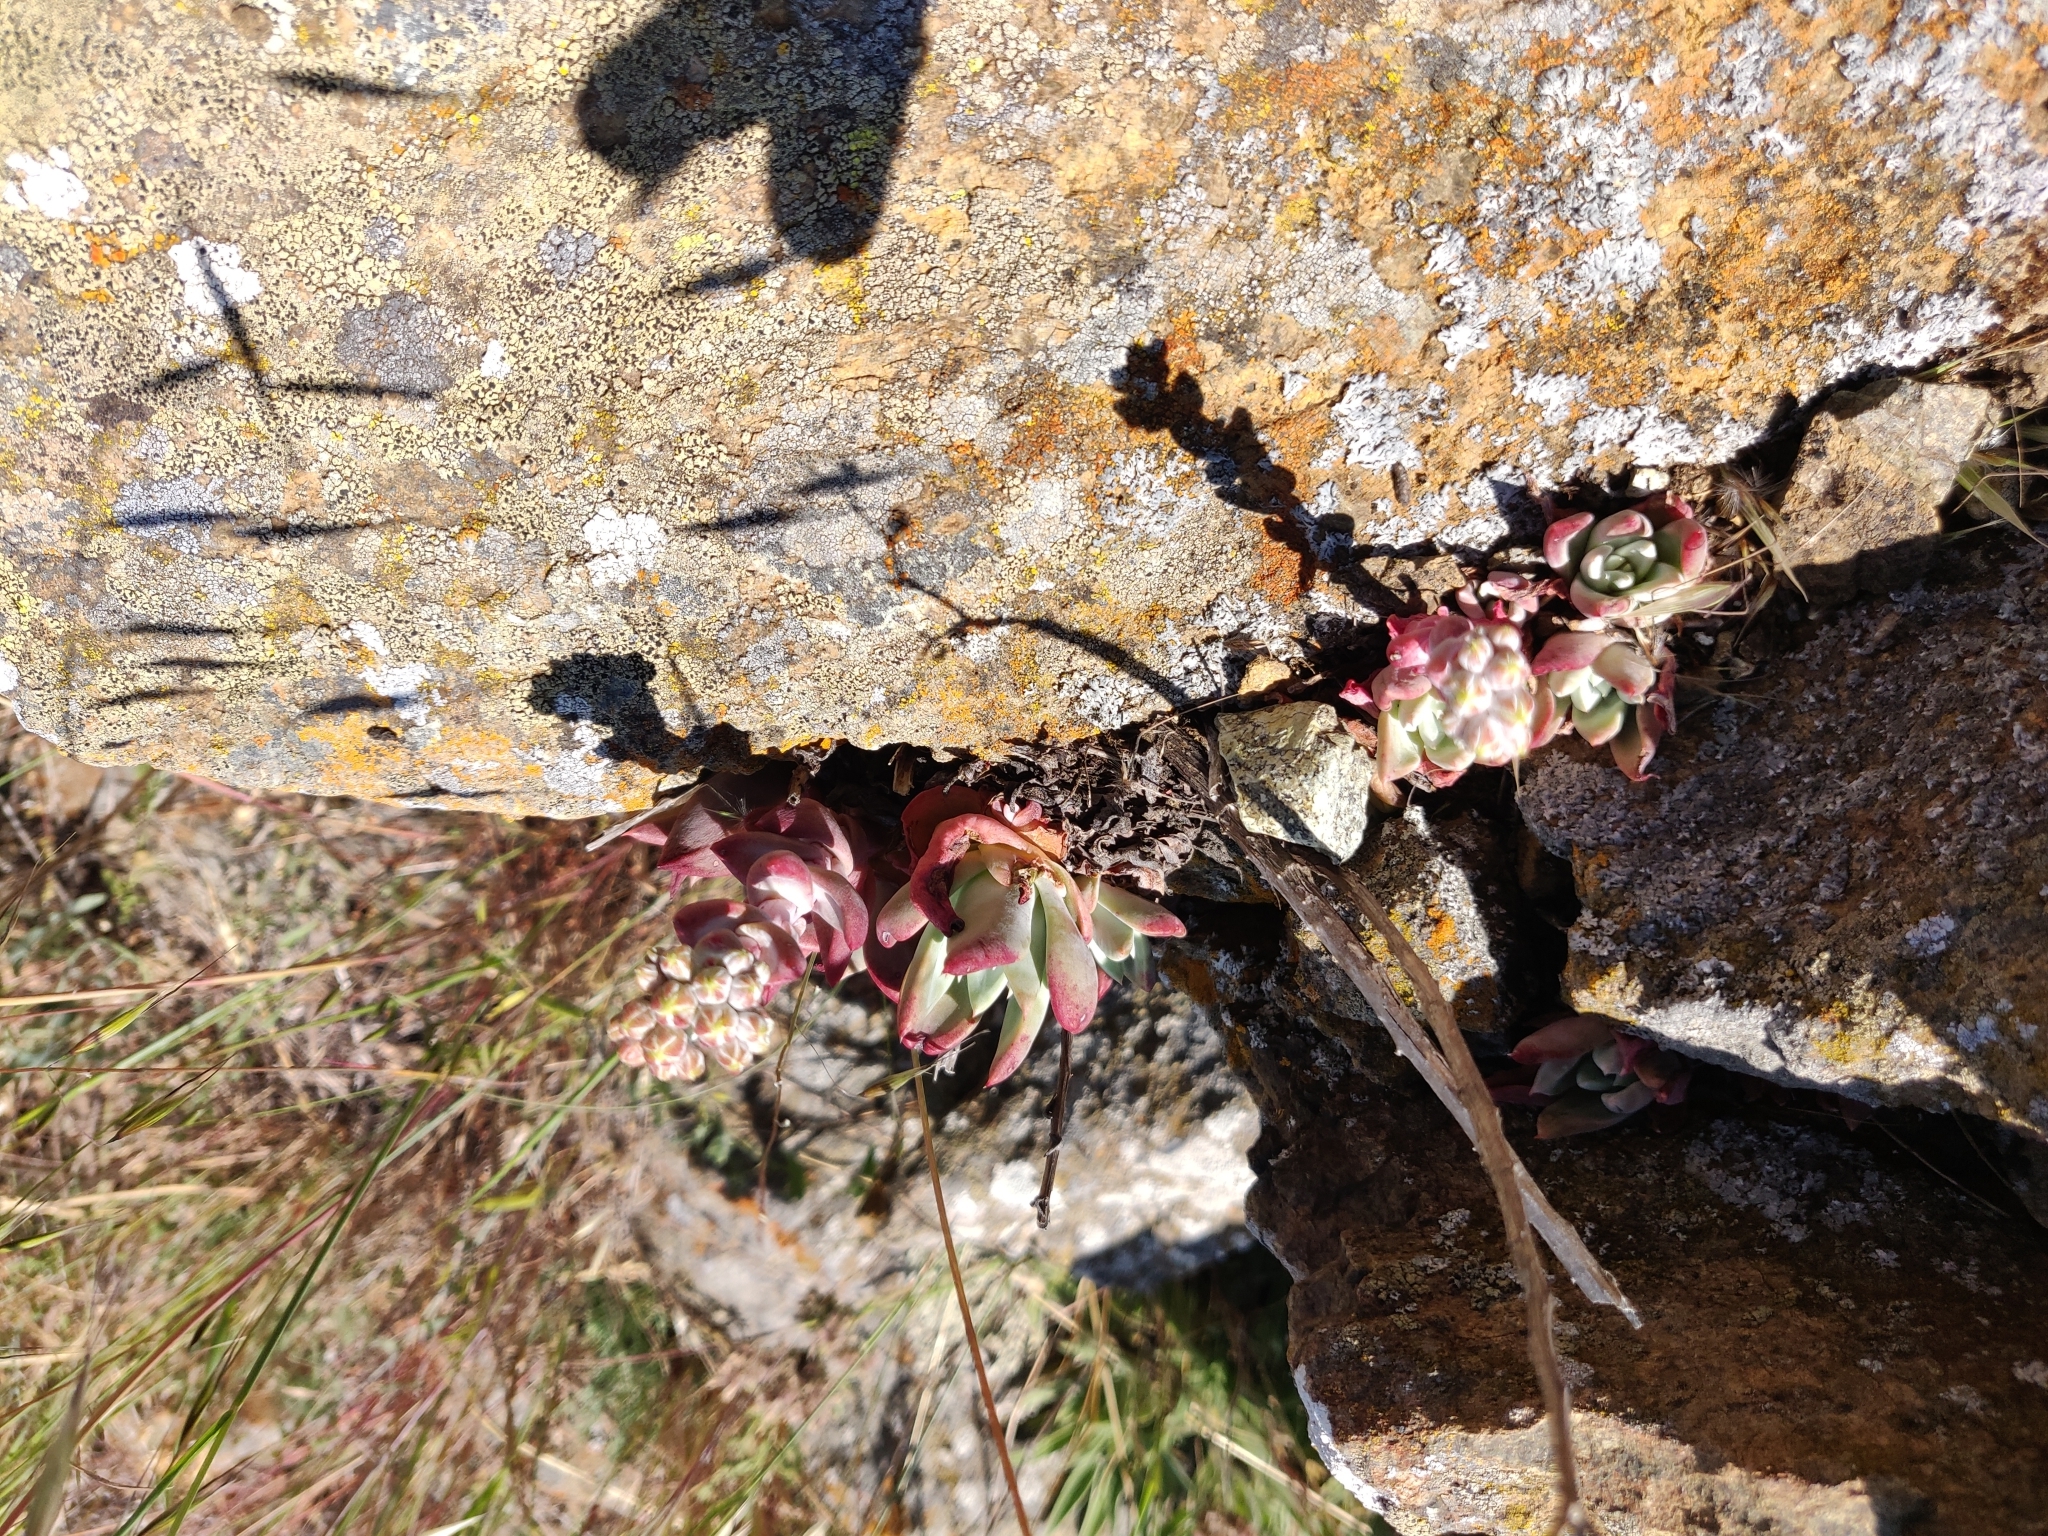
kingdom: Plantae
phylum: Tracheophyta
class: Magnoliopsida
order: Saxifragales
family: Crassulaceae
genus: Dudleya
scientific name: Dudleya farinosa
